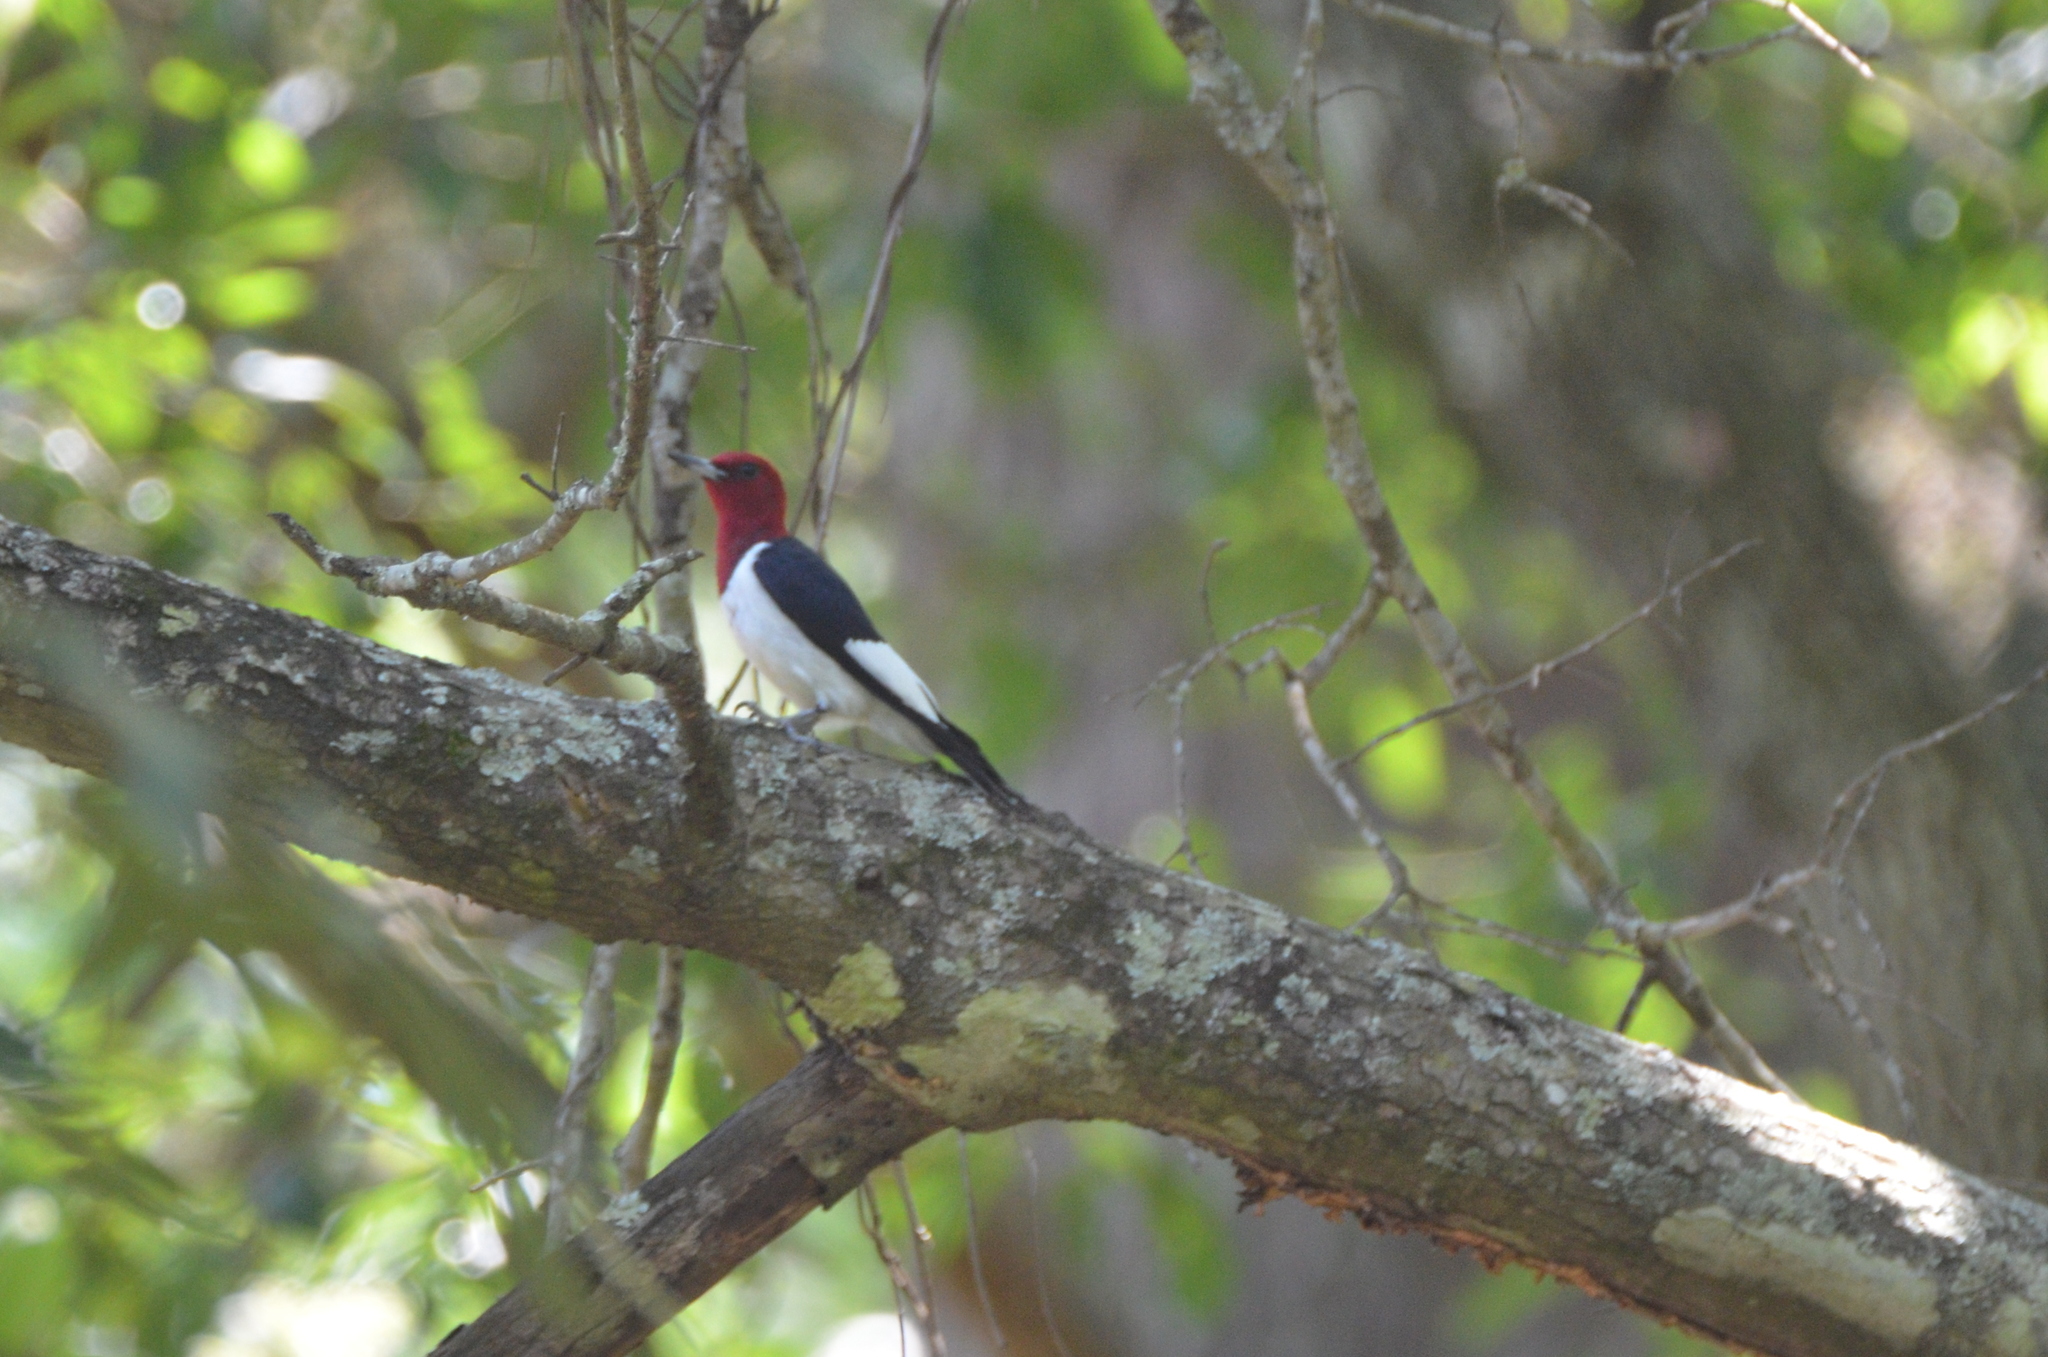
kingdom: Animalia
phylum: Chordata
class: Aves
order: Piciformes
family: Picidae
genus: Melanerpes
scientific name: Melanerpes erythrocephalus
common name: Red-headed woodpecker
